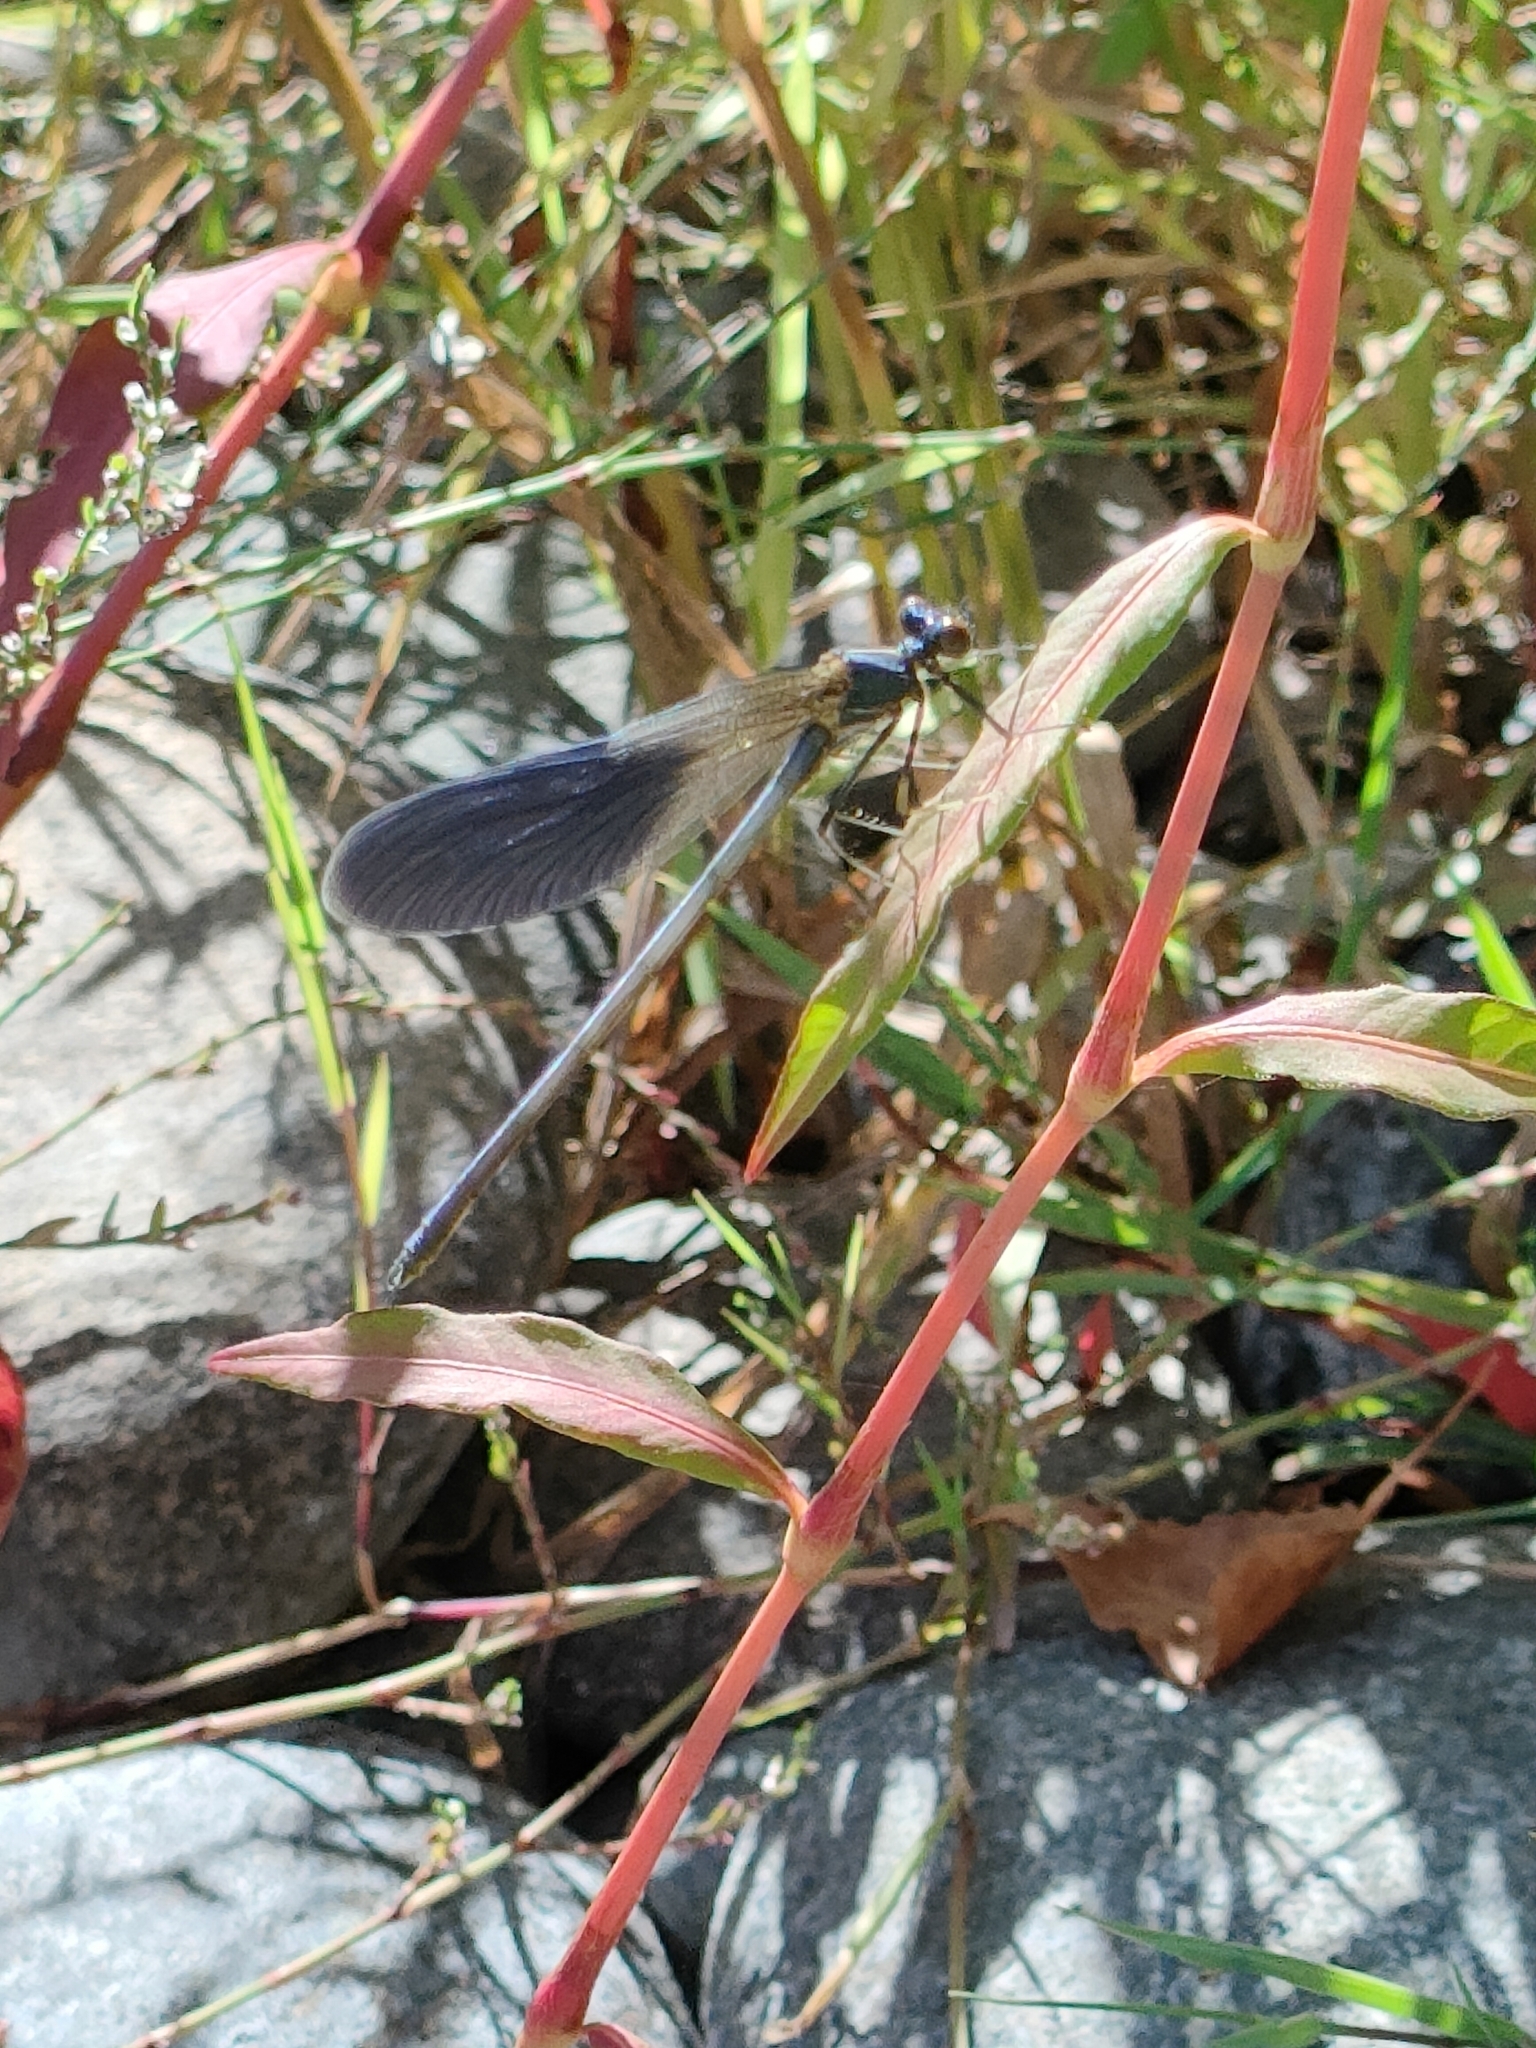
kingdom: Animalia
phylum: Arthropoda
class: Insecta
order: Odonata
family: Calopterygidae
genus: Calopteryx
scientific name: Calopteryx splendens
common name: Banded demoiselle
